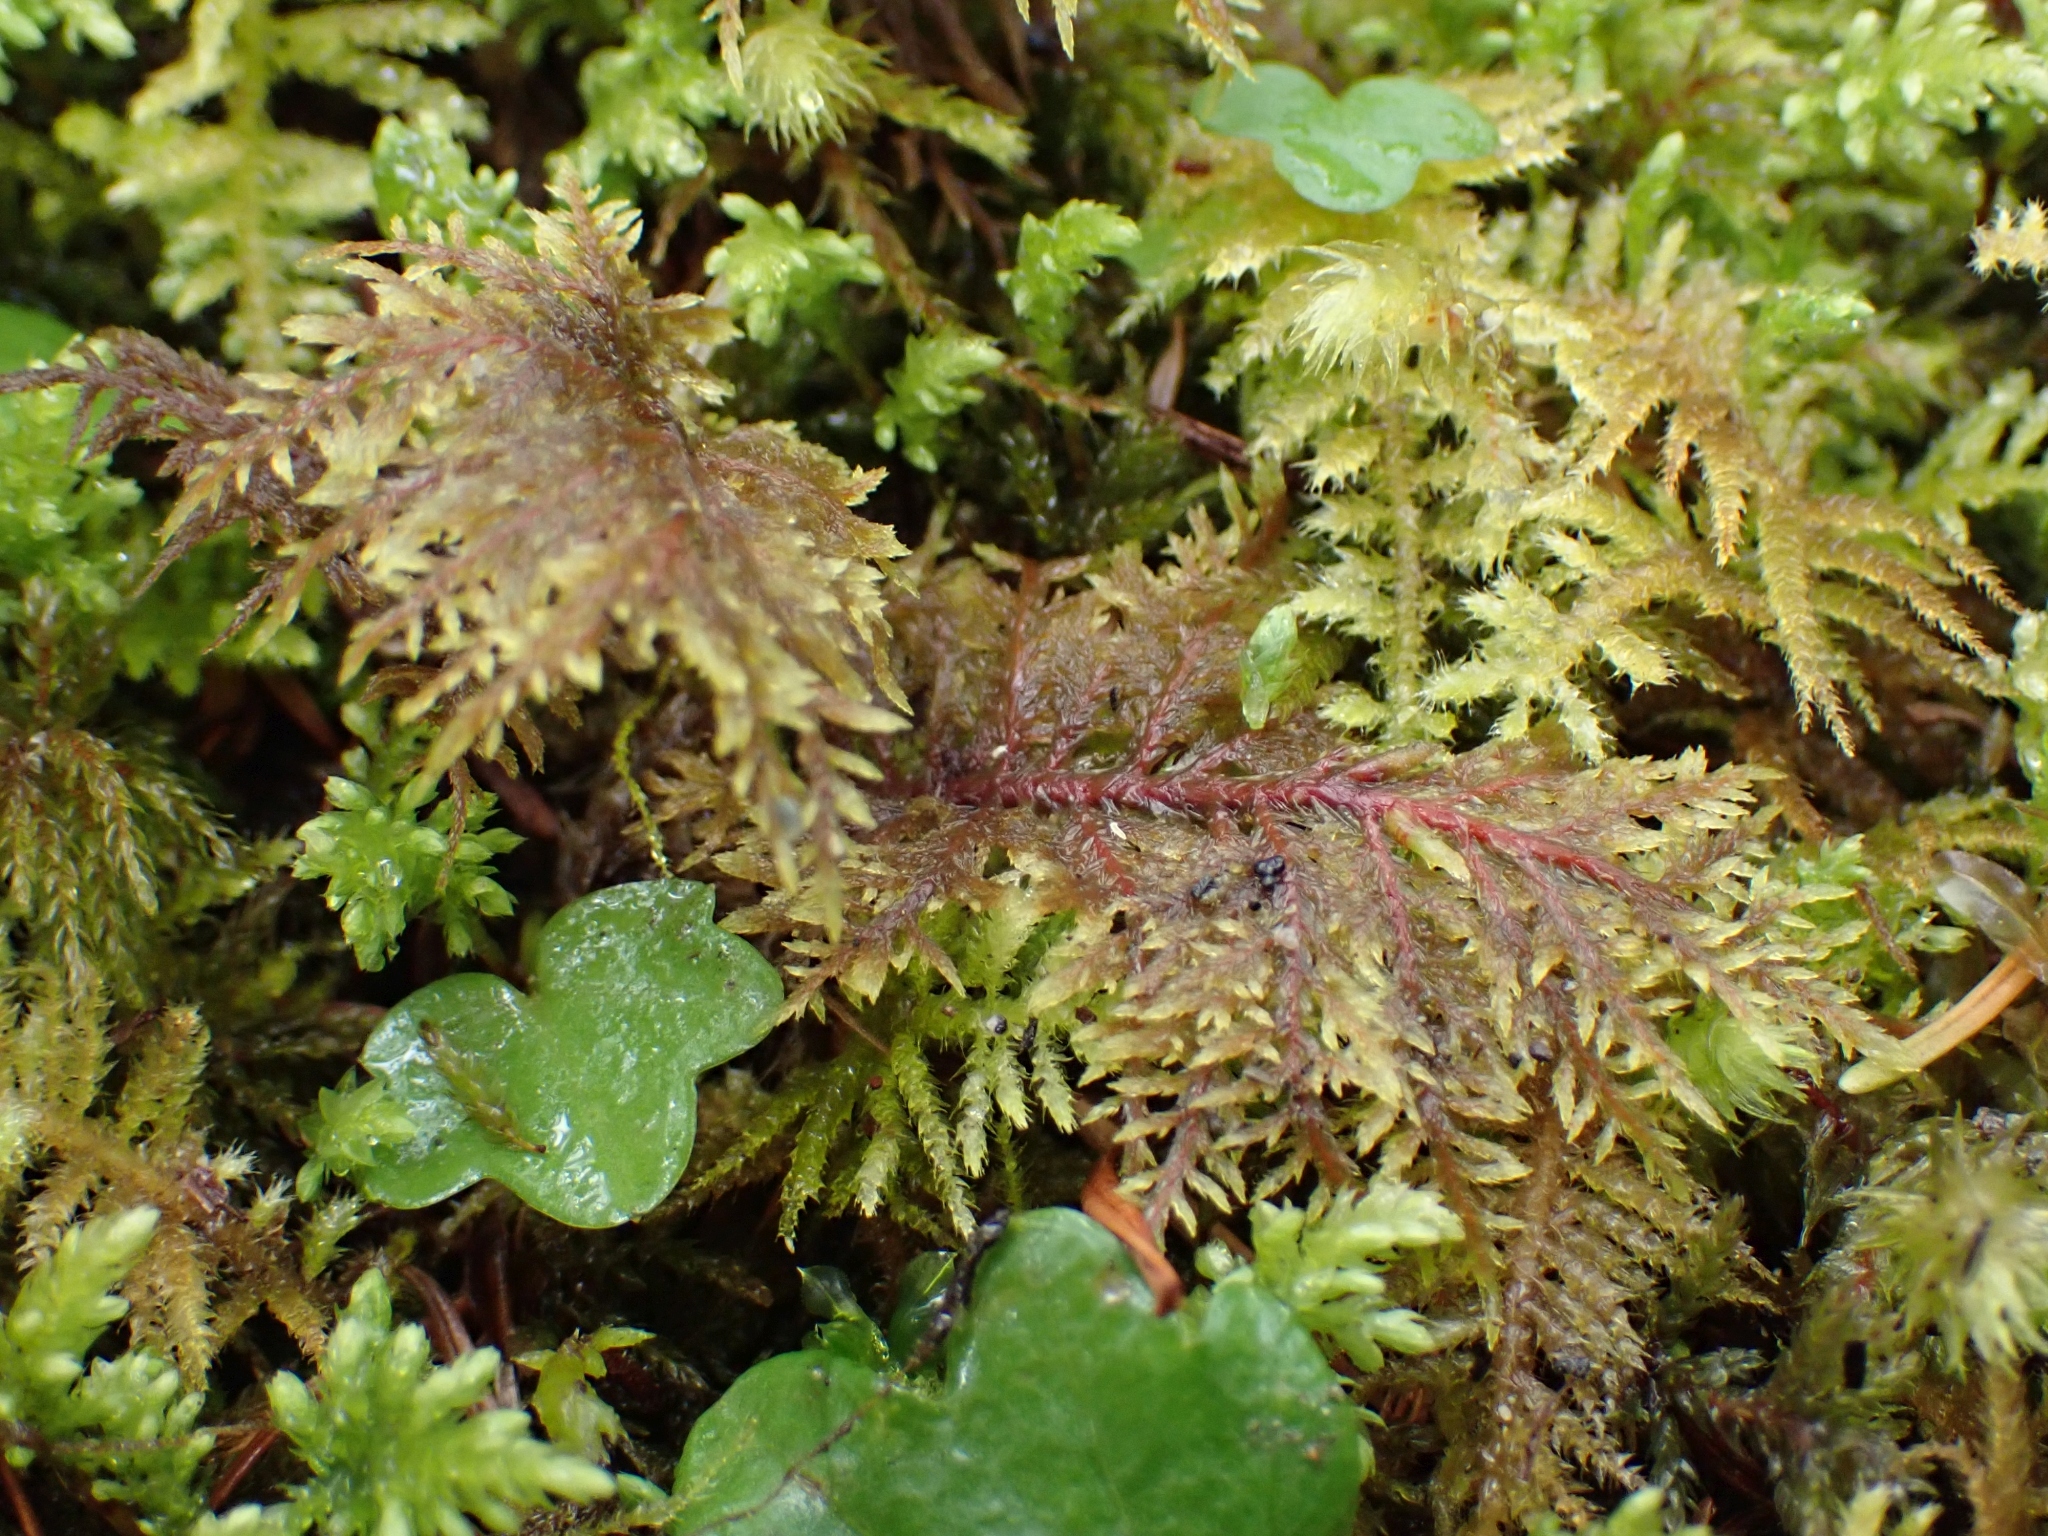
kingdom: Plantae
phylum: Bryophyta
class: Bryopsida
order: Hypnales
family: Hylocomiaceae
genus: Hylocomium
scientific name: Hylocomium splendens
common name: Stairstep moss
